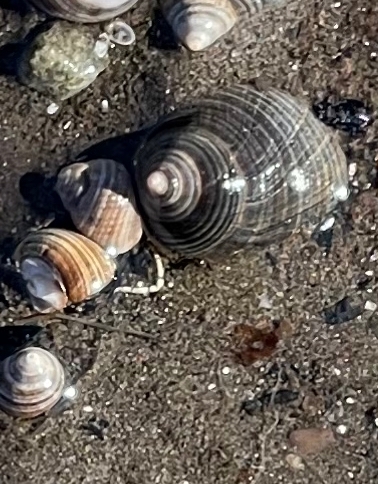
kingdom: Animalia
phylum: Mollusca
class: Gastropoda
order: Littorinimorpha
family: Littorinidae
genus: Littorina
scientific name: Littorina littorea
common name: Common periwinkle
